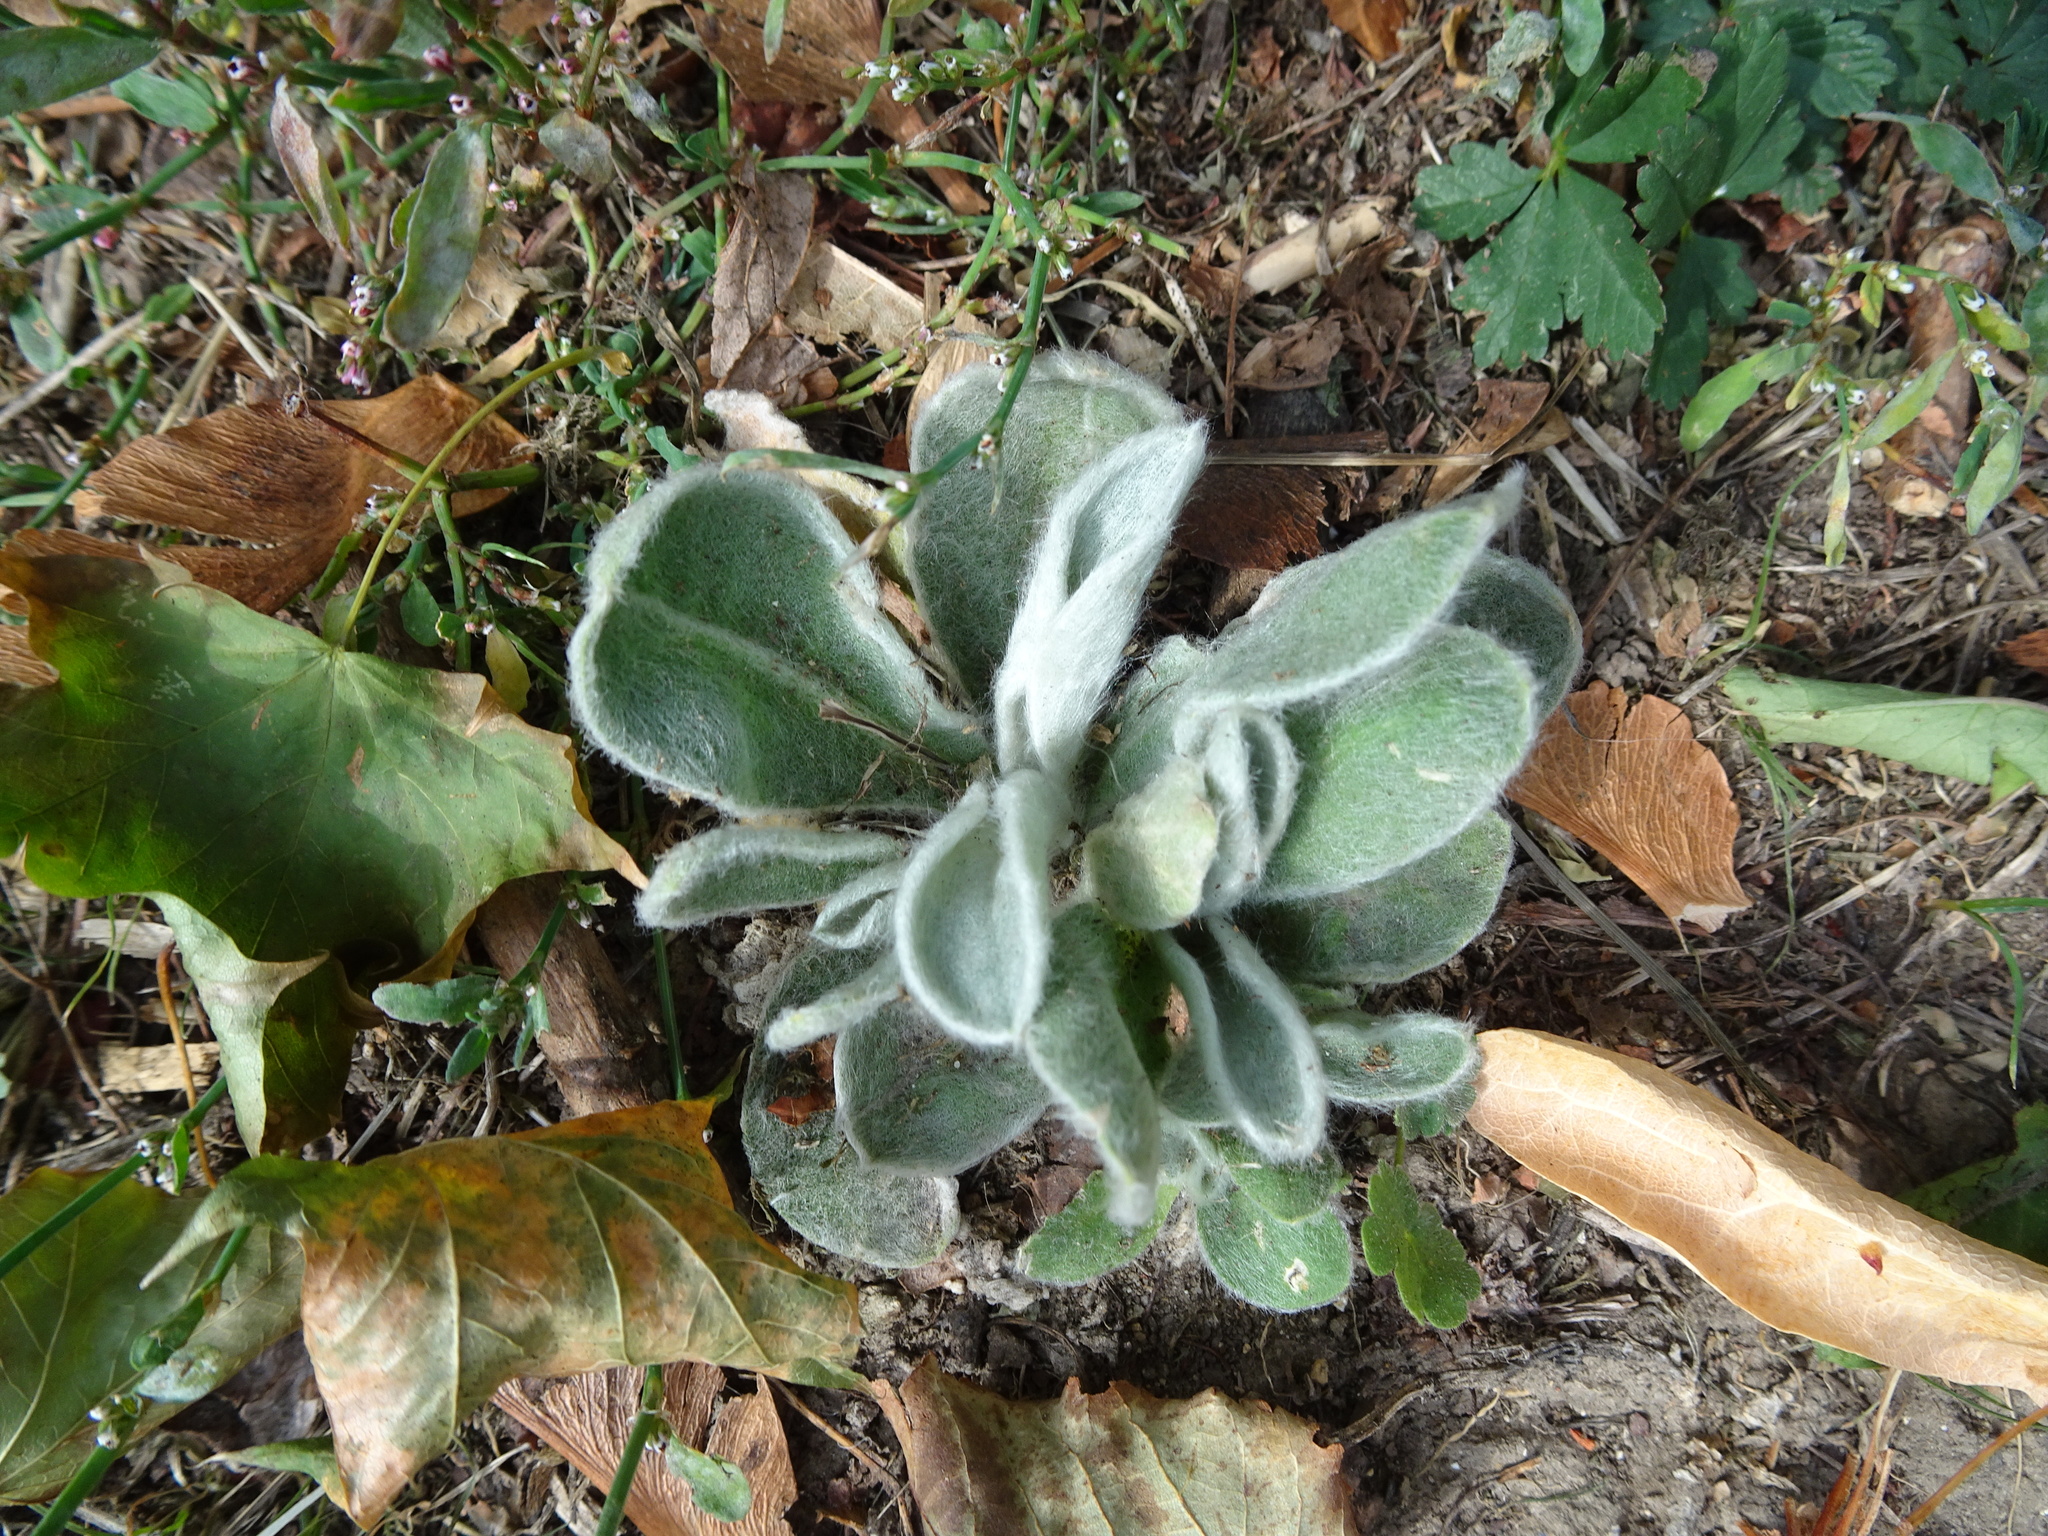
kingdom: Plantae
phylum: Tracheophyta
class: Magnoliopsida
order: Caryophyllales
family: Caryophyllaceae
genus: Silene
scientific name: Silene coronaria
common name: Rose campion
